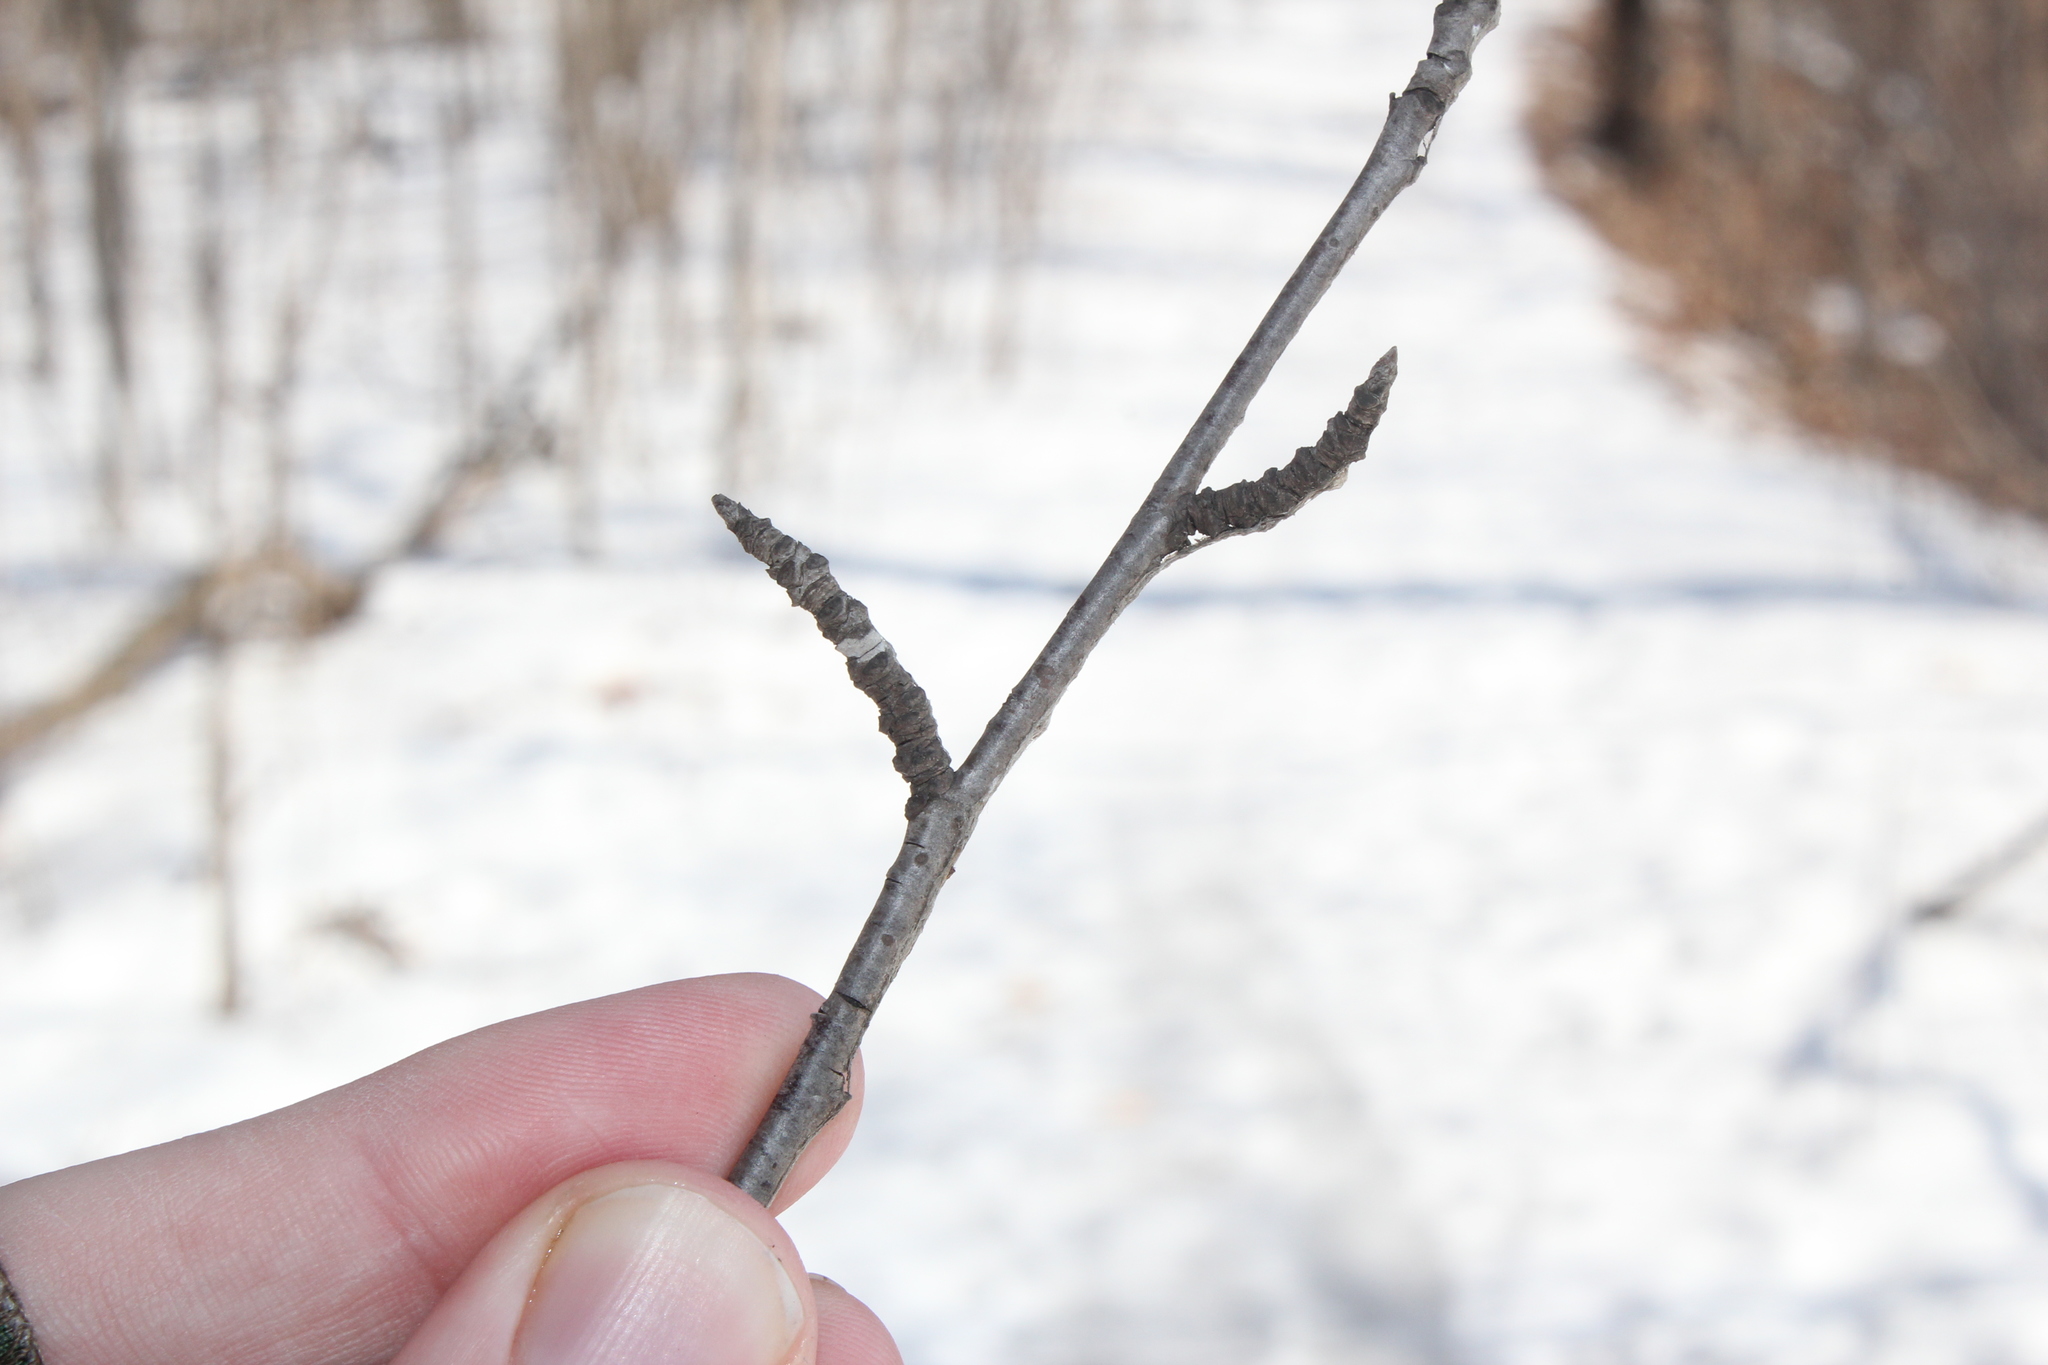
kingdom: Plantae
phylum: Tracheophyta
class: Magnoliopsida
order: Rosales
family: Rosaceae
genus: Prunus
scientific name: Prunus avium
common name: Sweet cherry
